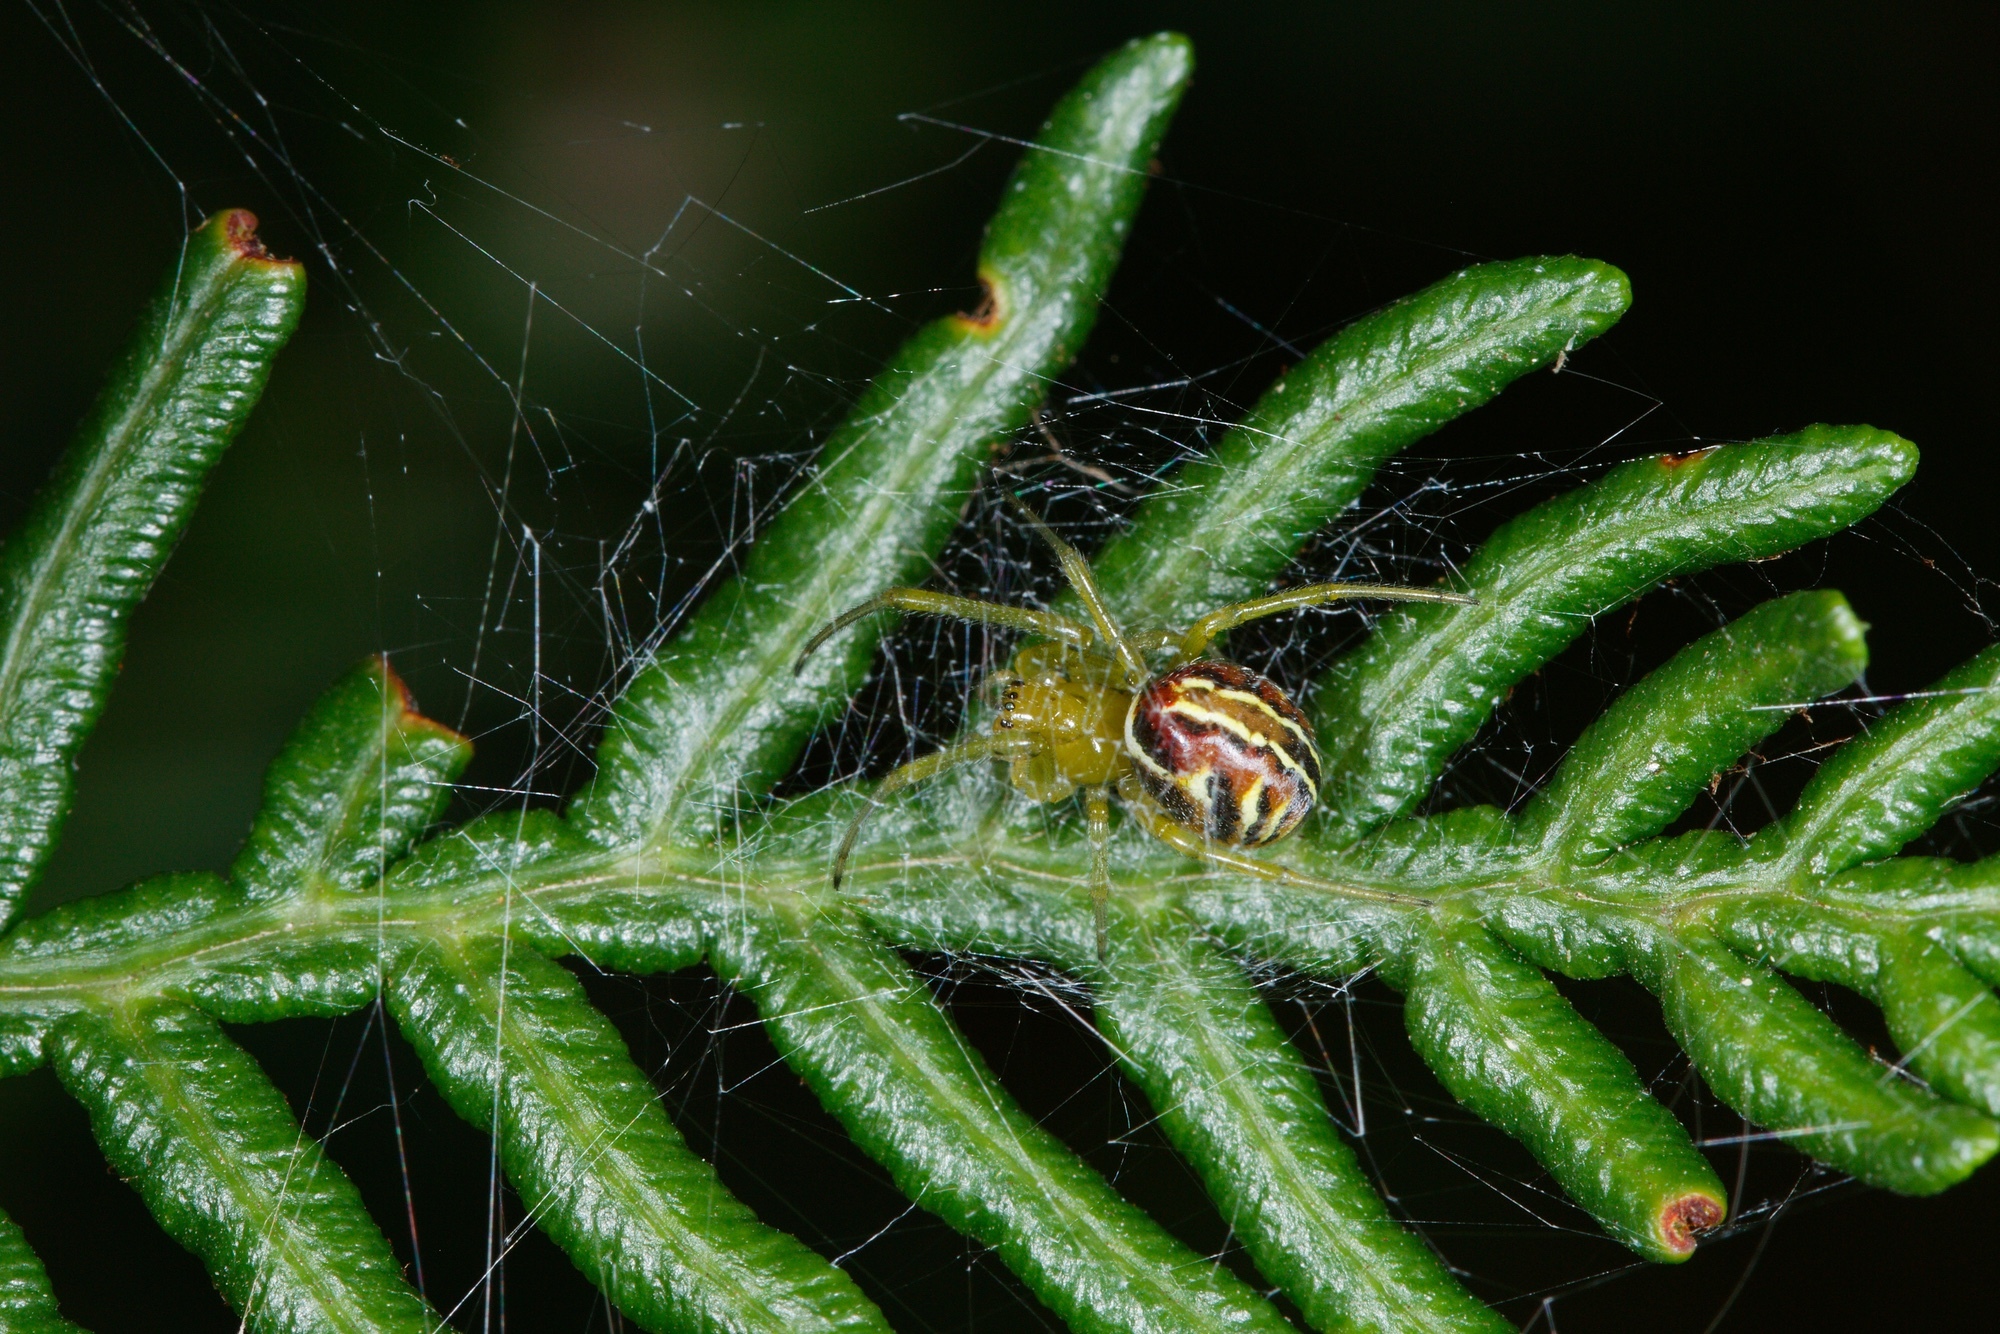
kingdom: Animalia
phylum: Arthropoda
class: Arachnida
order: Araneae
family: Araneidae
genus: Deliochus
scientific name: Deliochus pulchra
